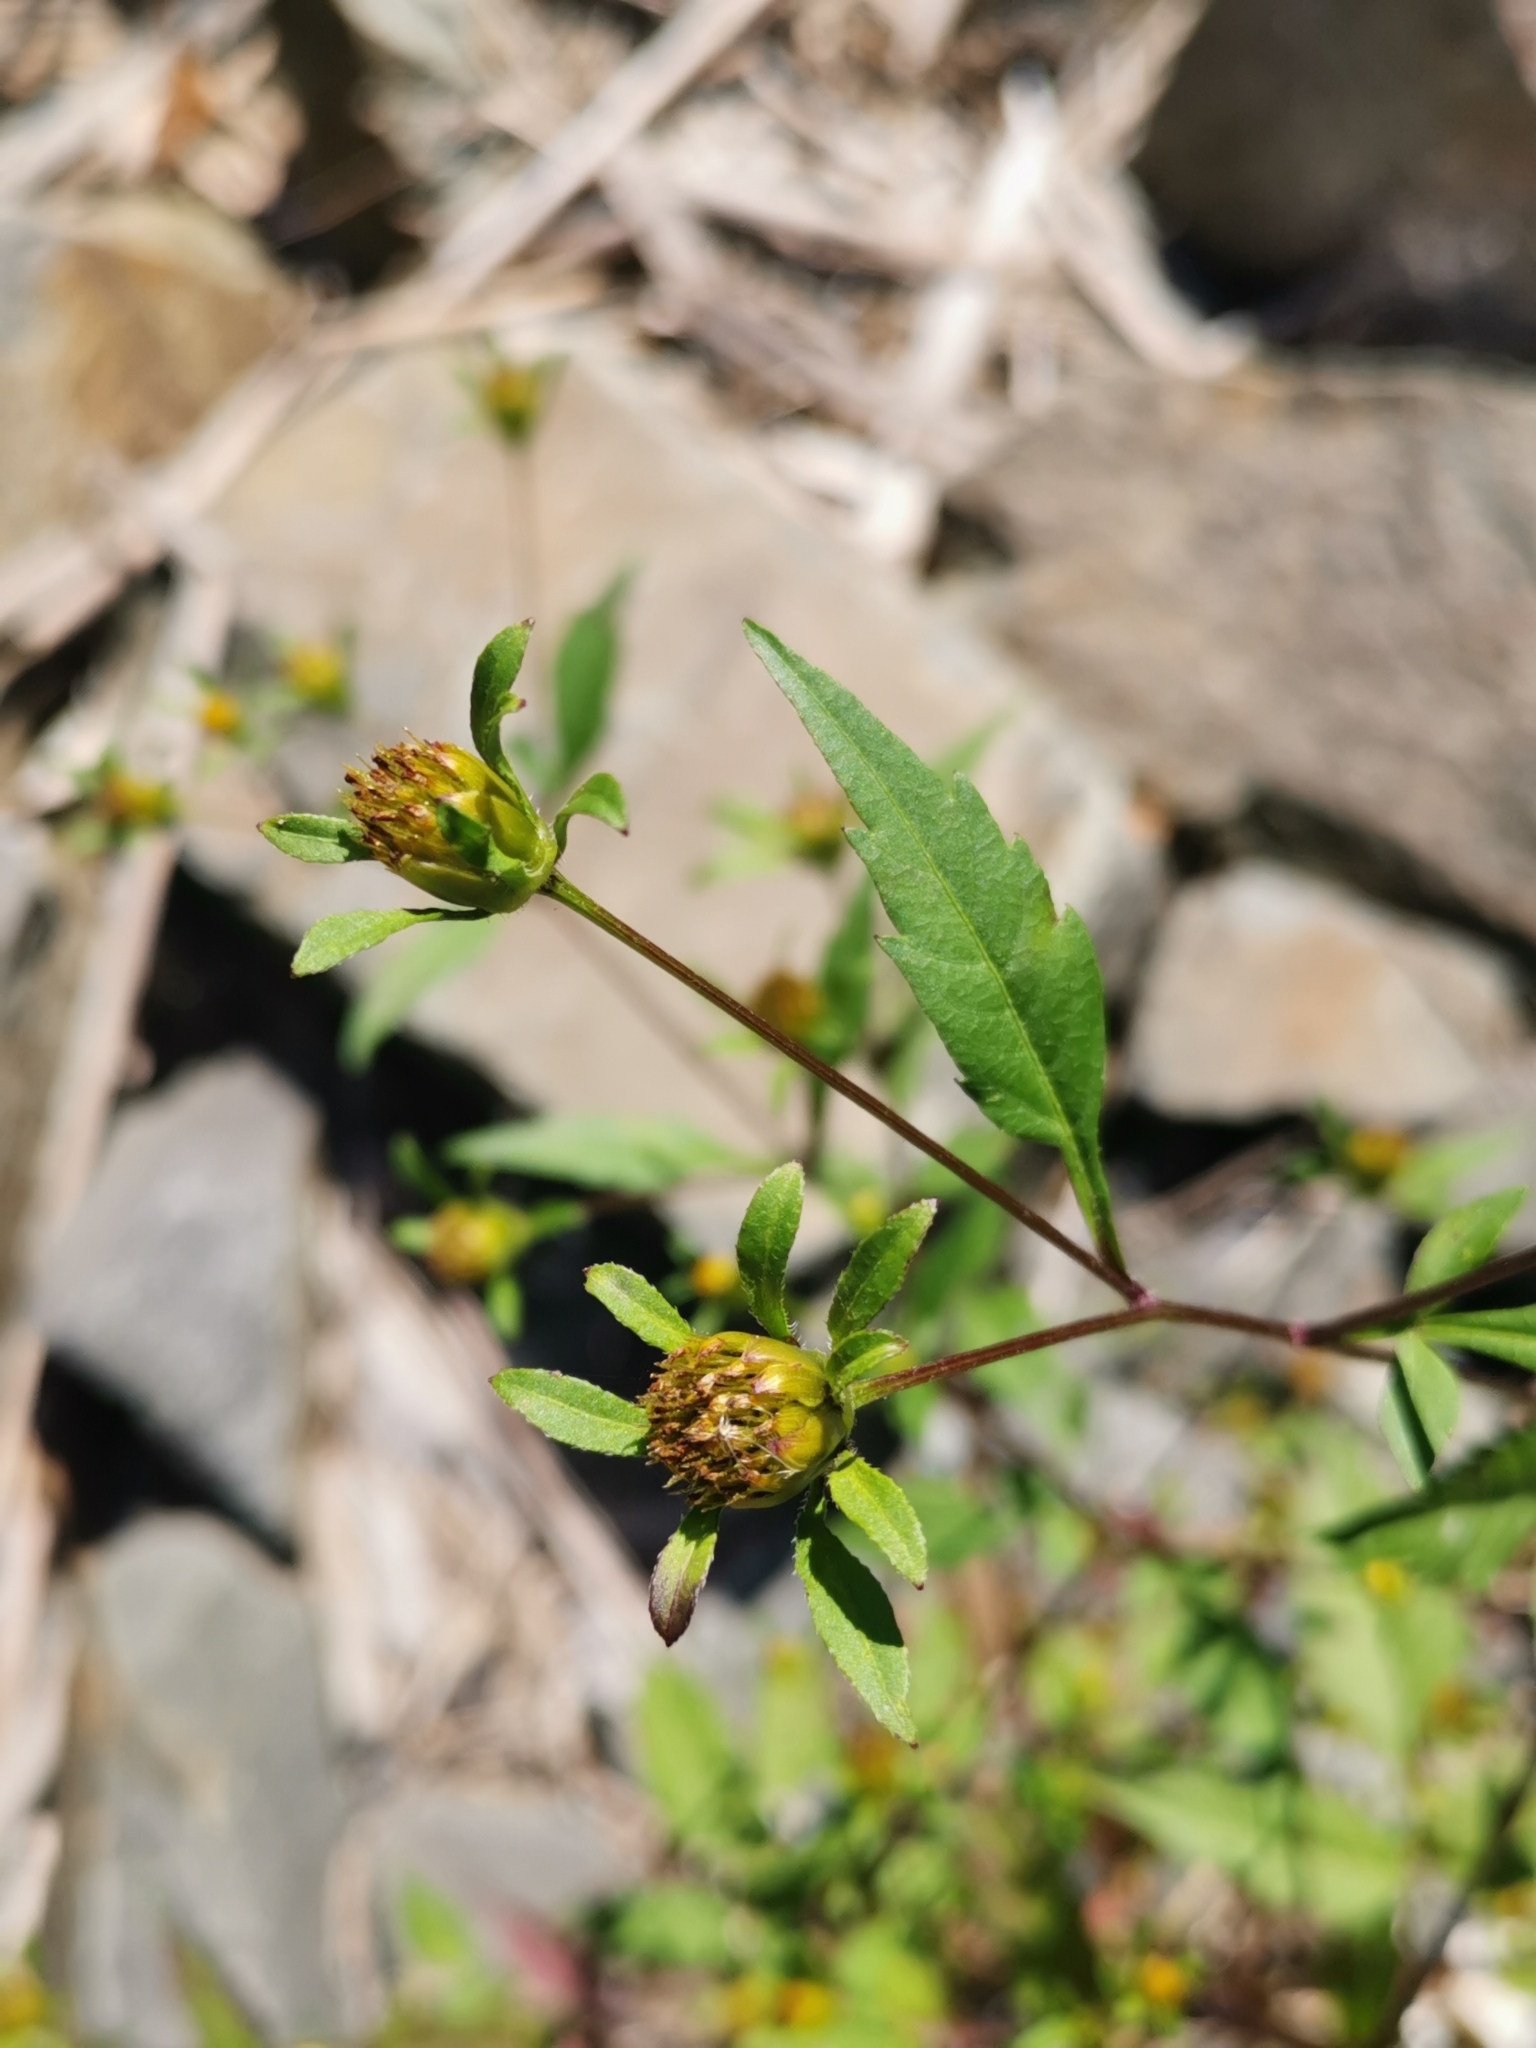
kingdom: Plantae
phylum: Tracheophyta
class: Magnoliopsida
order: Asterales
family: Asteraceae
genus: Bidens
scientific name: Bidens frondosa
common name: Beggarticks
